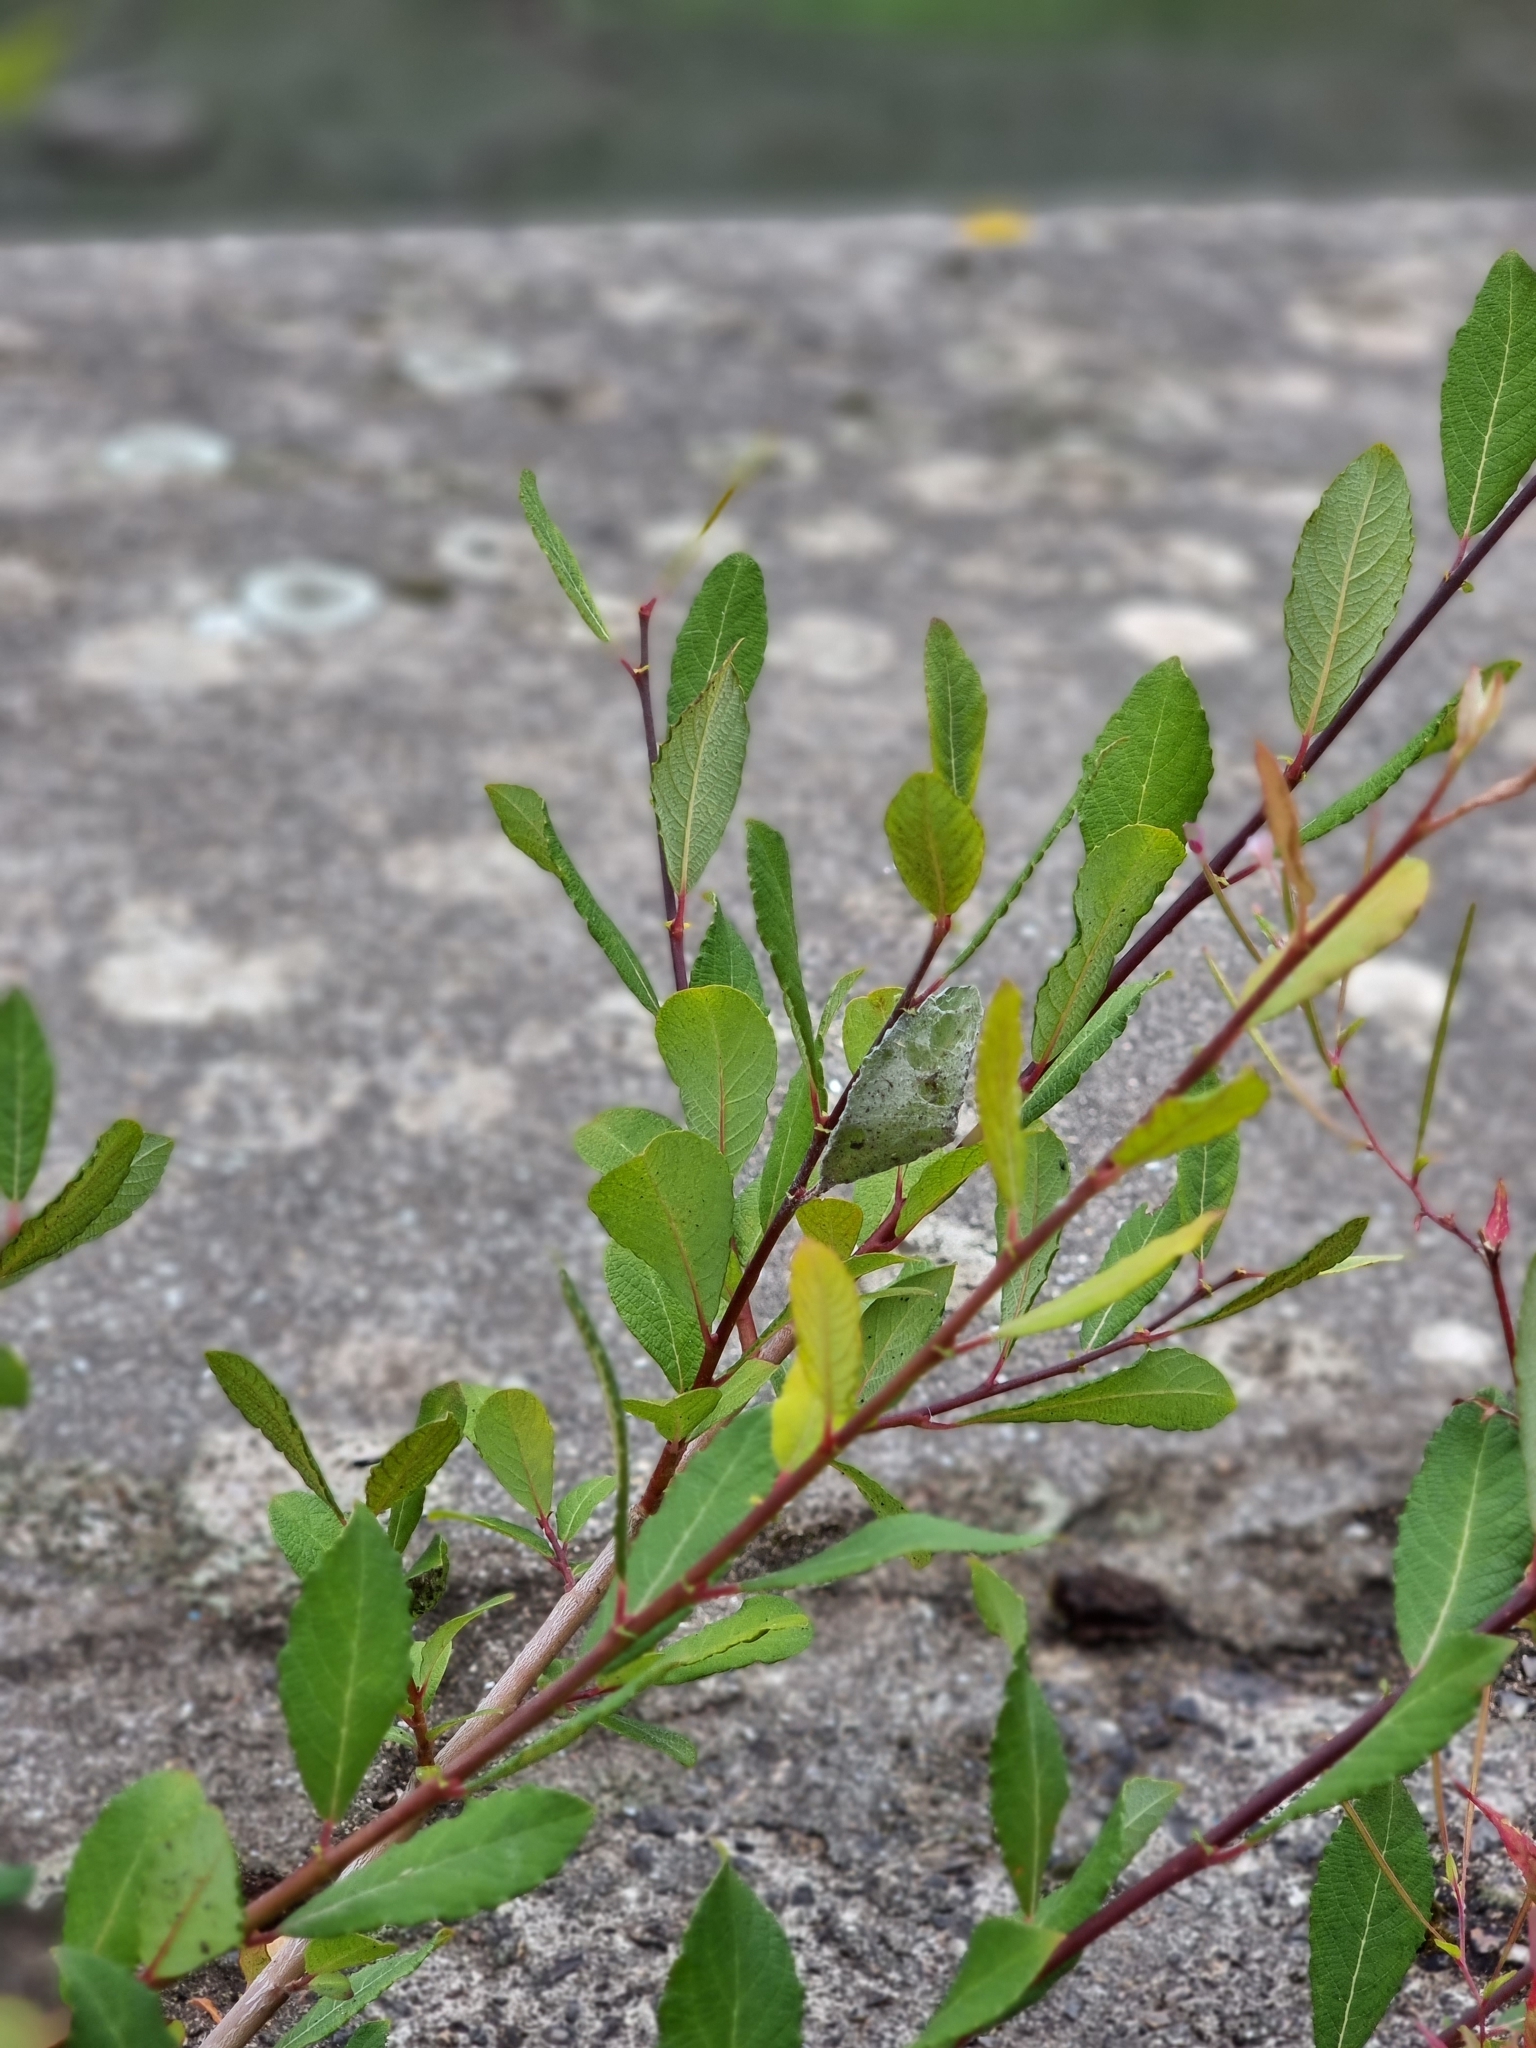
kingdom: Plantae
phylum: Tracheophyta
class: Magnoliopsida
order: Malpighiales
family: Salicaceae
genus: Salix
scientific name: Salix atrocinerea
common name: Rusty willow
